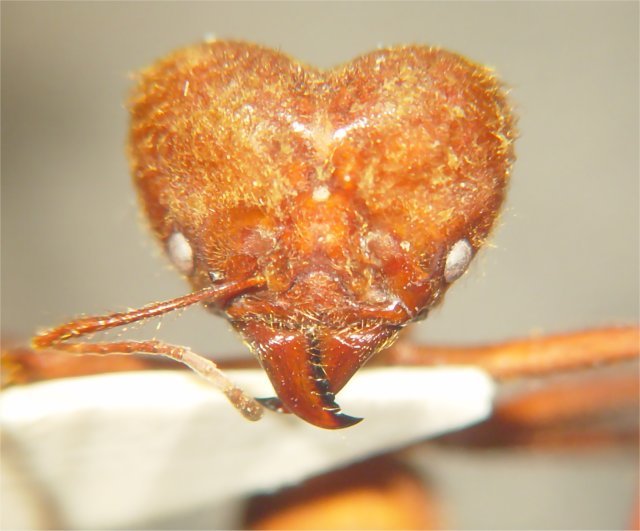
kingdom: Animalia
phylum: Arthropoda
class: Insecta
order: Hymenoptera
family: Formicidae
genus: Atta
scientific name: Atta cephalotes
